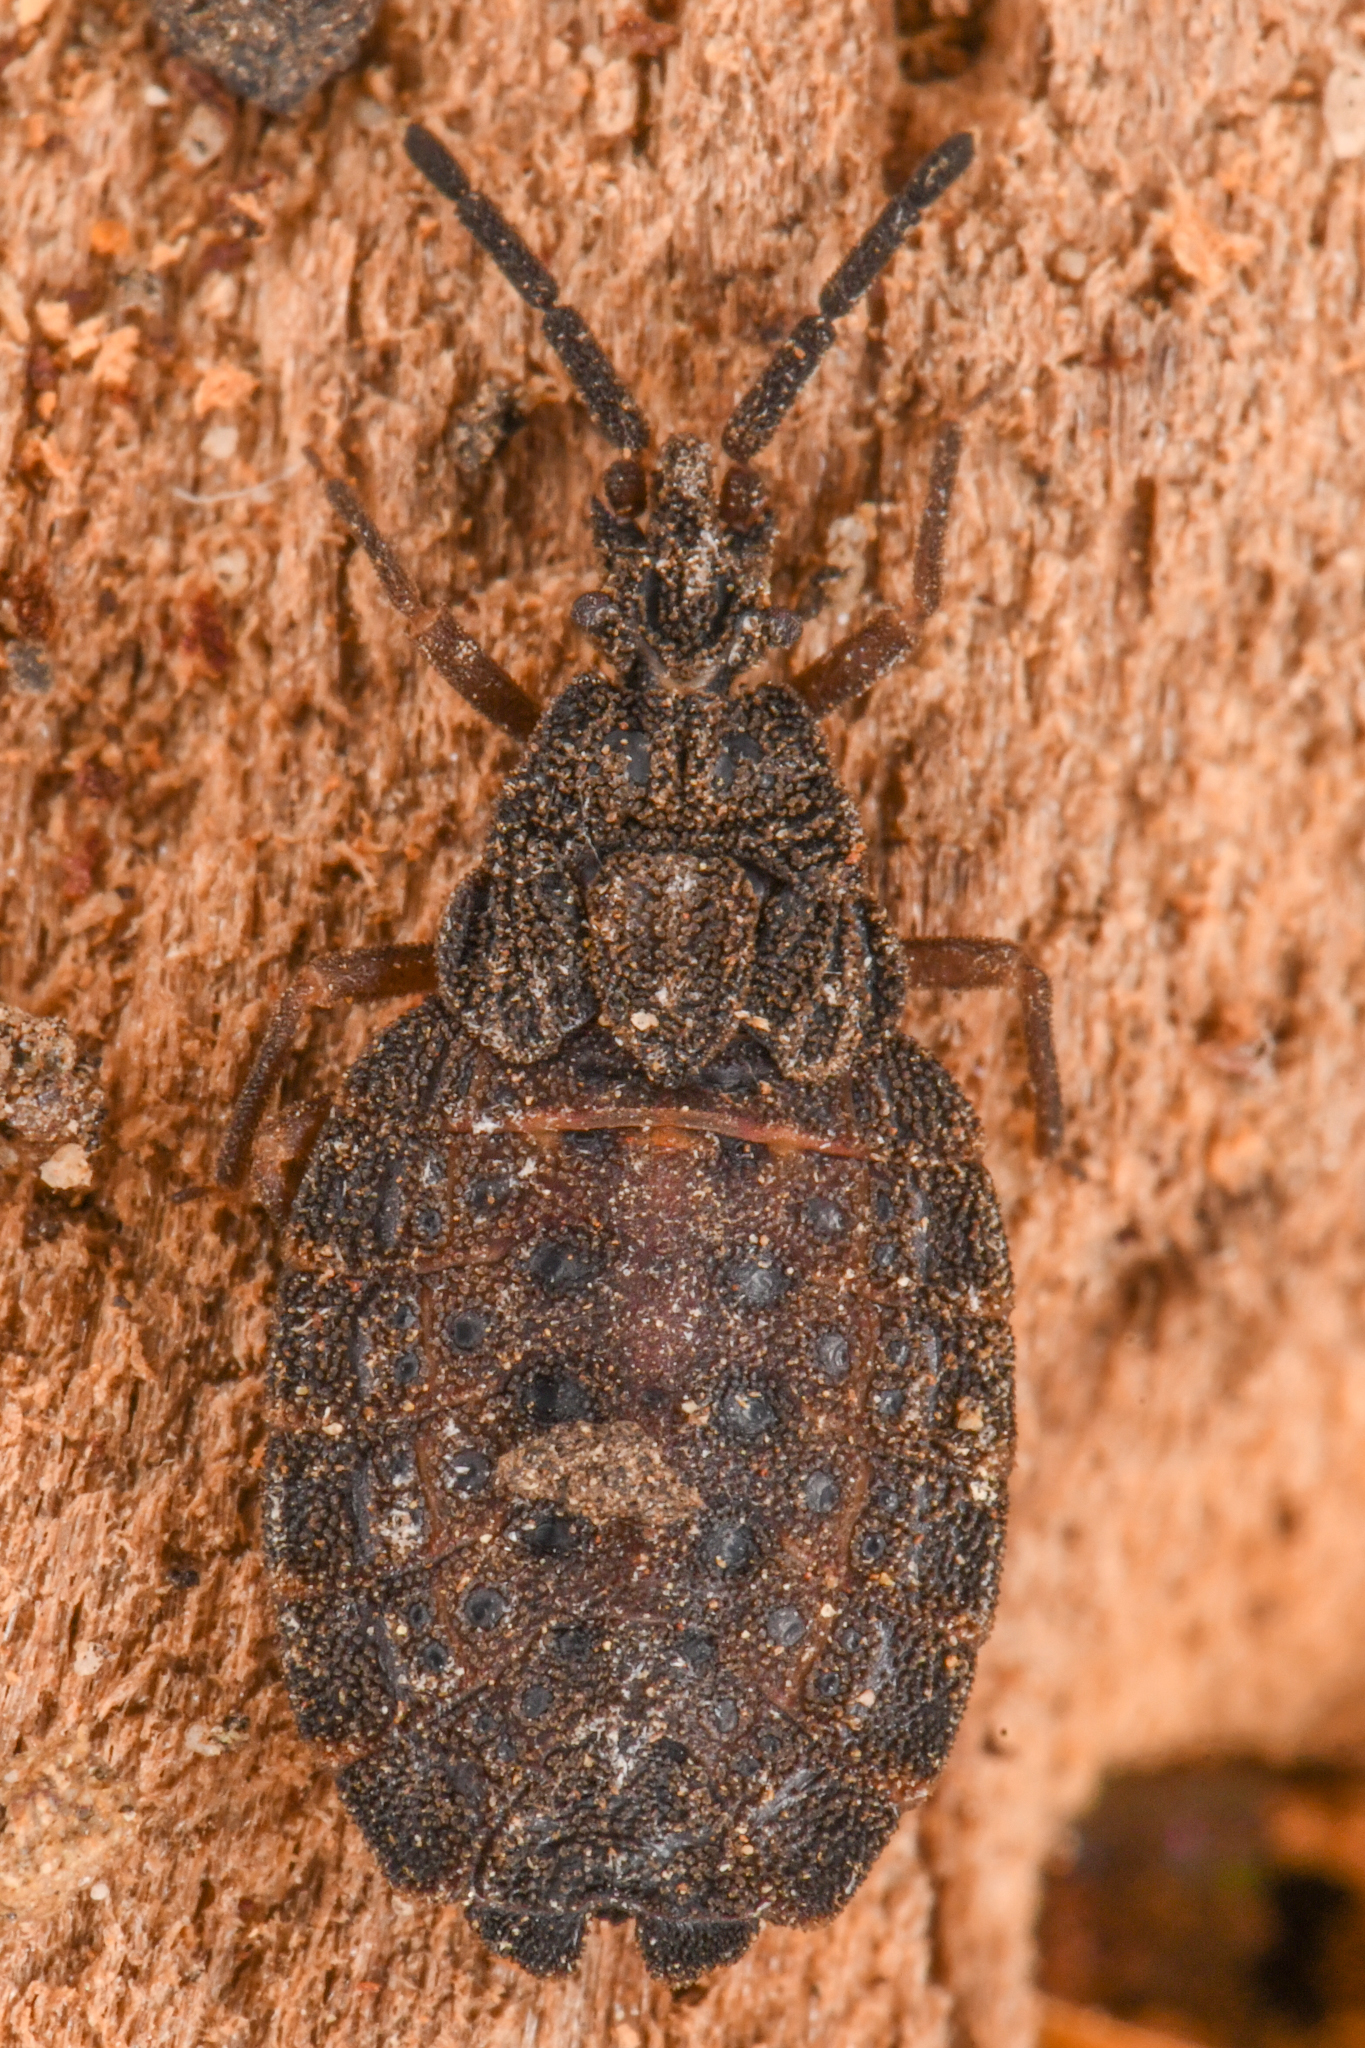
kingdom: Animalia
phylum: Arthropoda
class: Insecta
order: Hemiptera
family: Aradidae
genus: Aradus
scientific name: Aradus heidemanni
